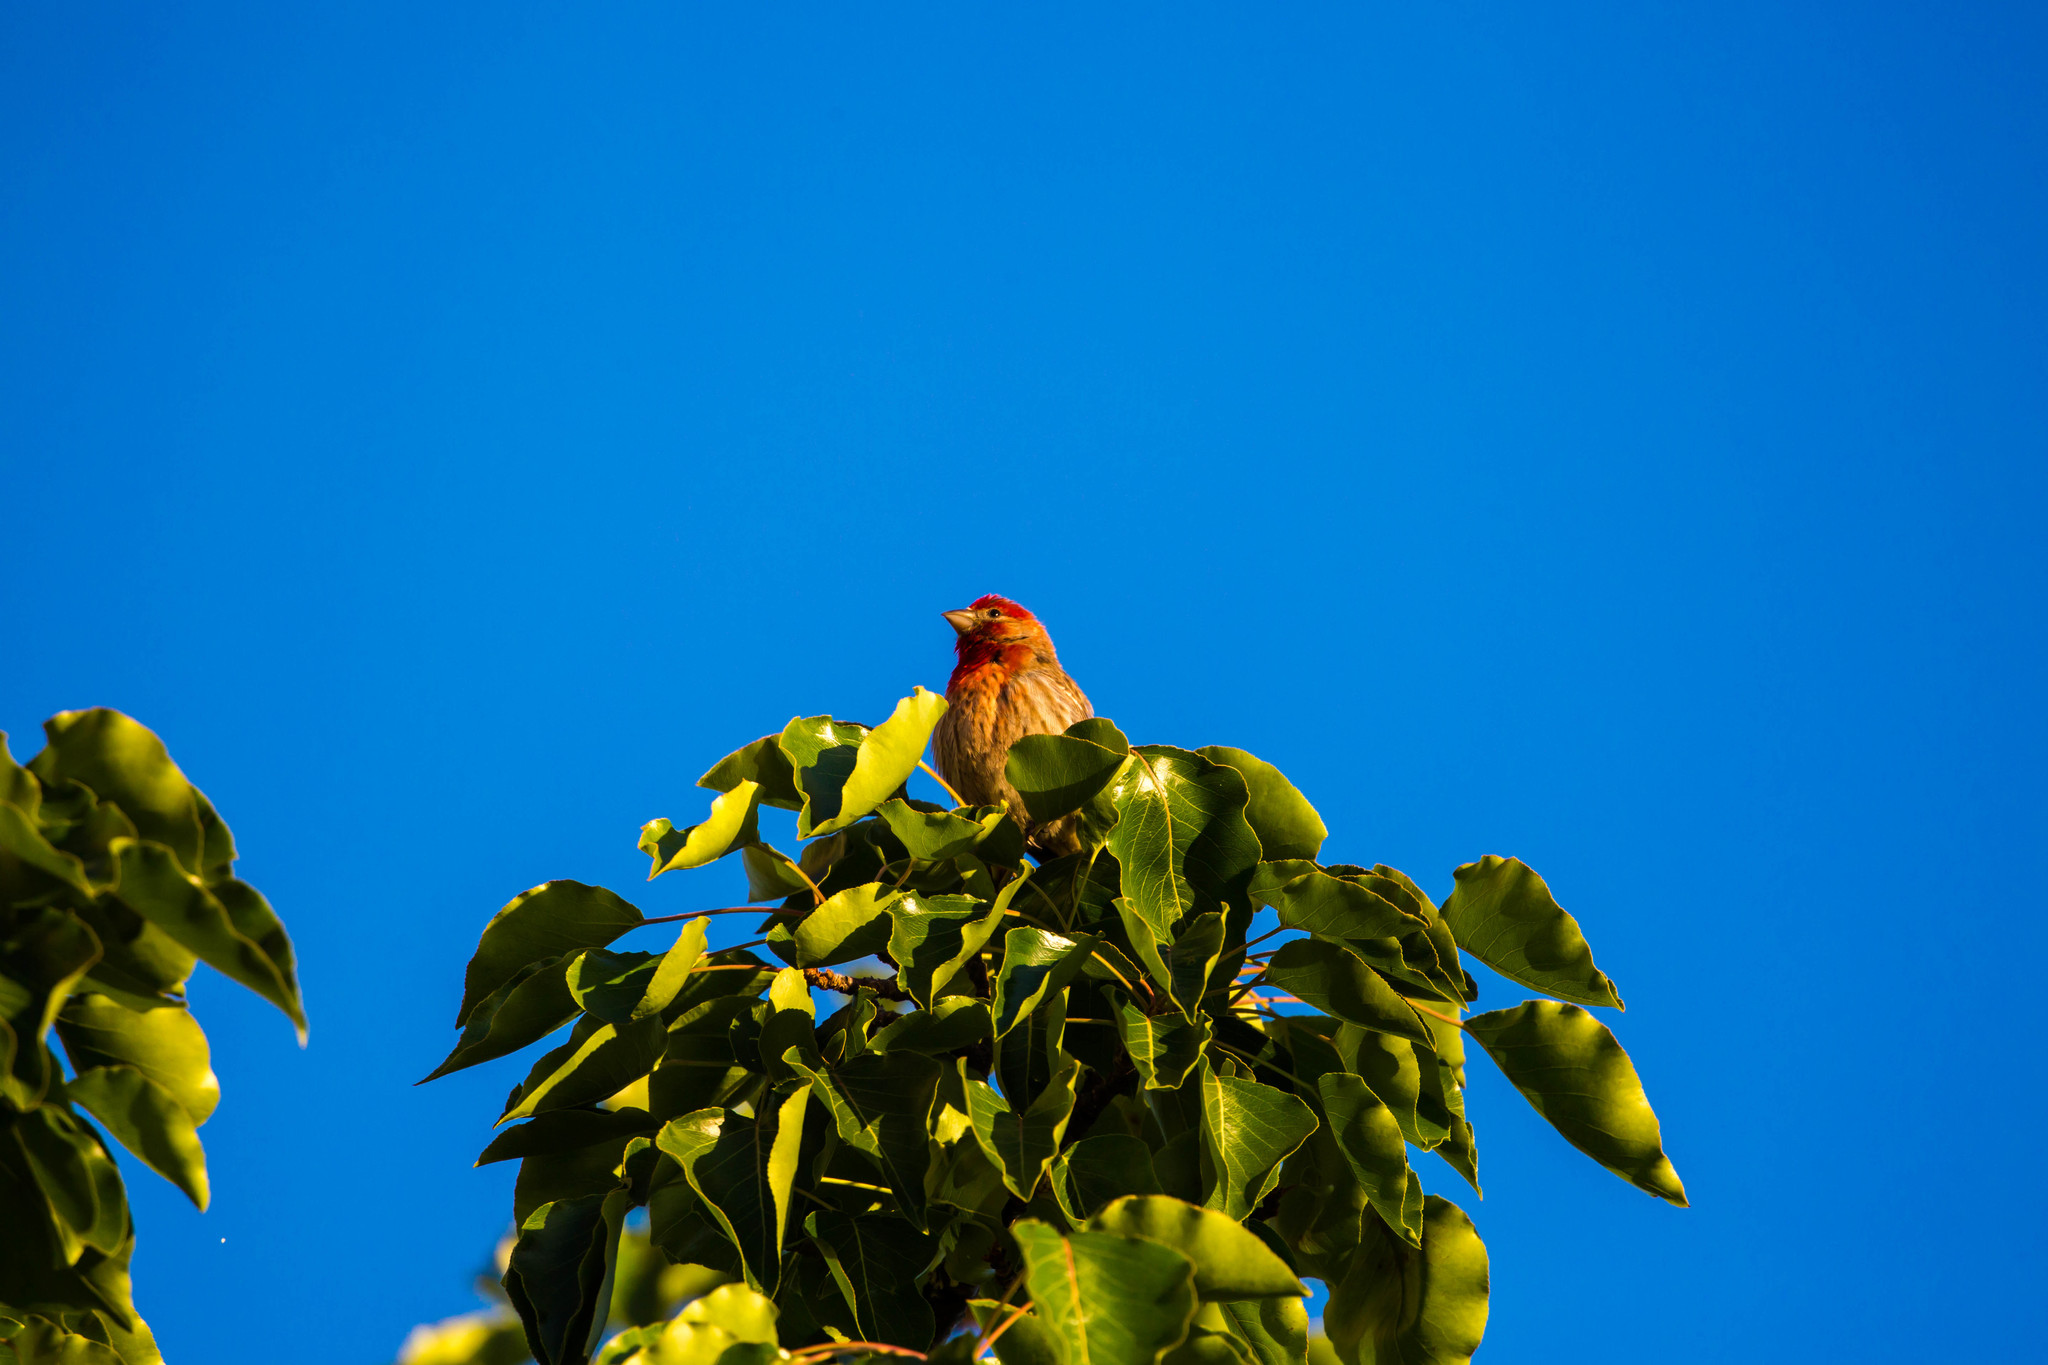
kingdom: Animalia
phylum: Chordata
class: Aves
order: Passeriformes
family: Fringillidae
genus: Haemorhous
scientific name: Haemorhous mexicanus
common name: House finch
